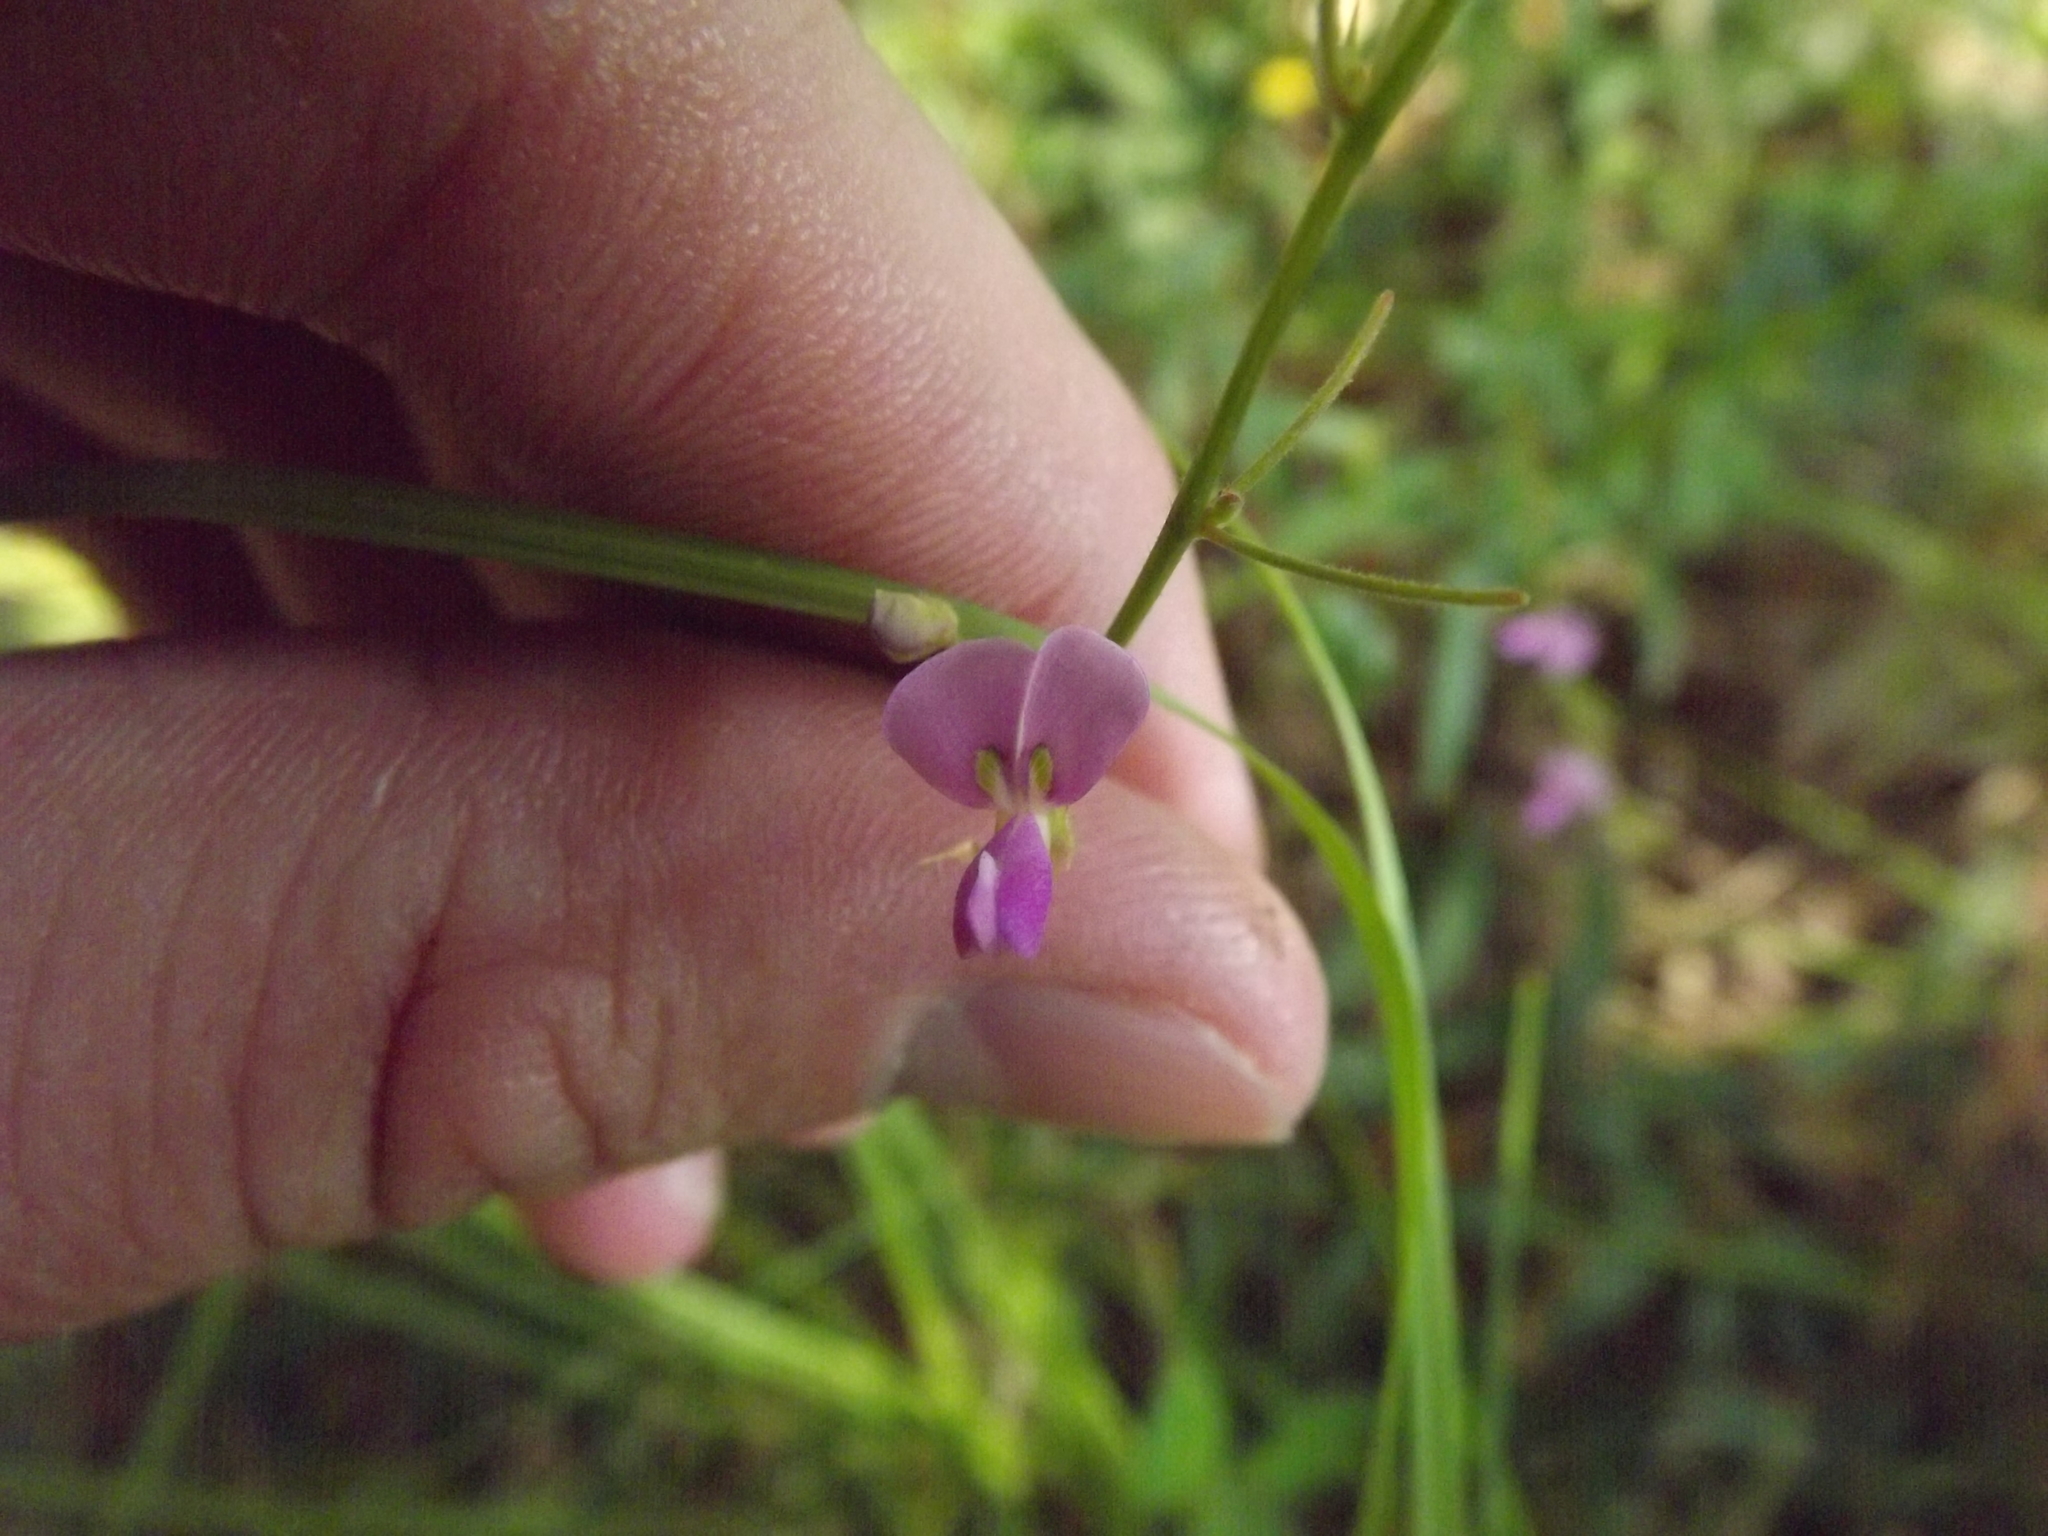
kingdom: Plantae
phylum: Tracheophyta
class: Magnoliopsida
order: Fabales
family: Fabaceae
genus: Desmodium
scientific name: Desmodium paniculatum
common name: Panicled tick-clover
